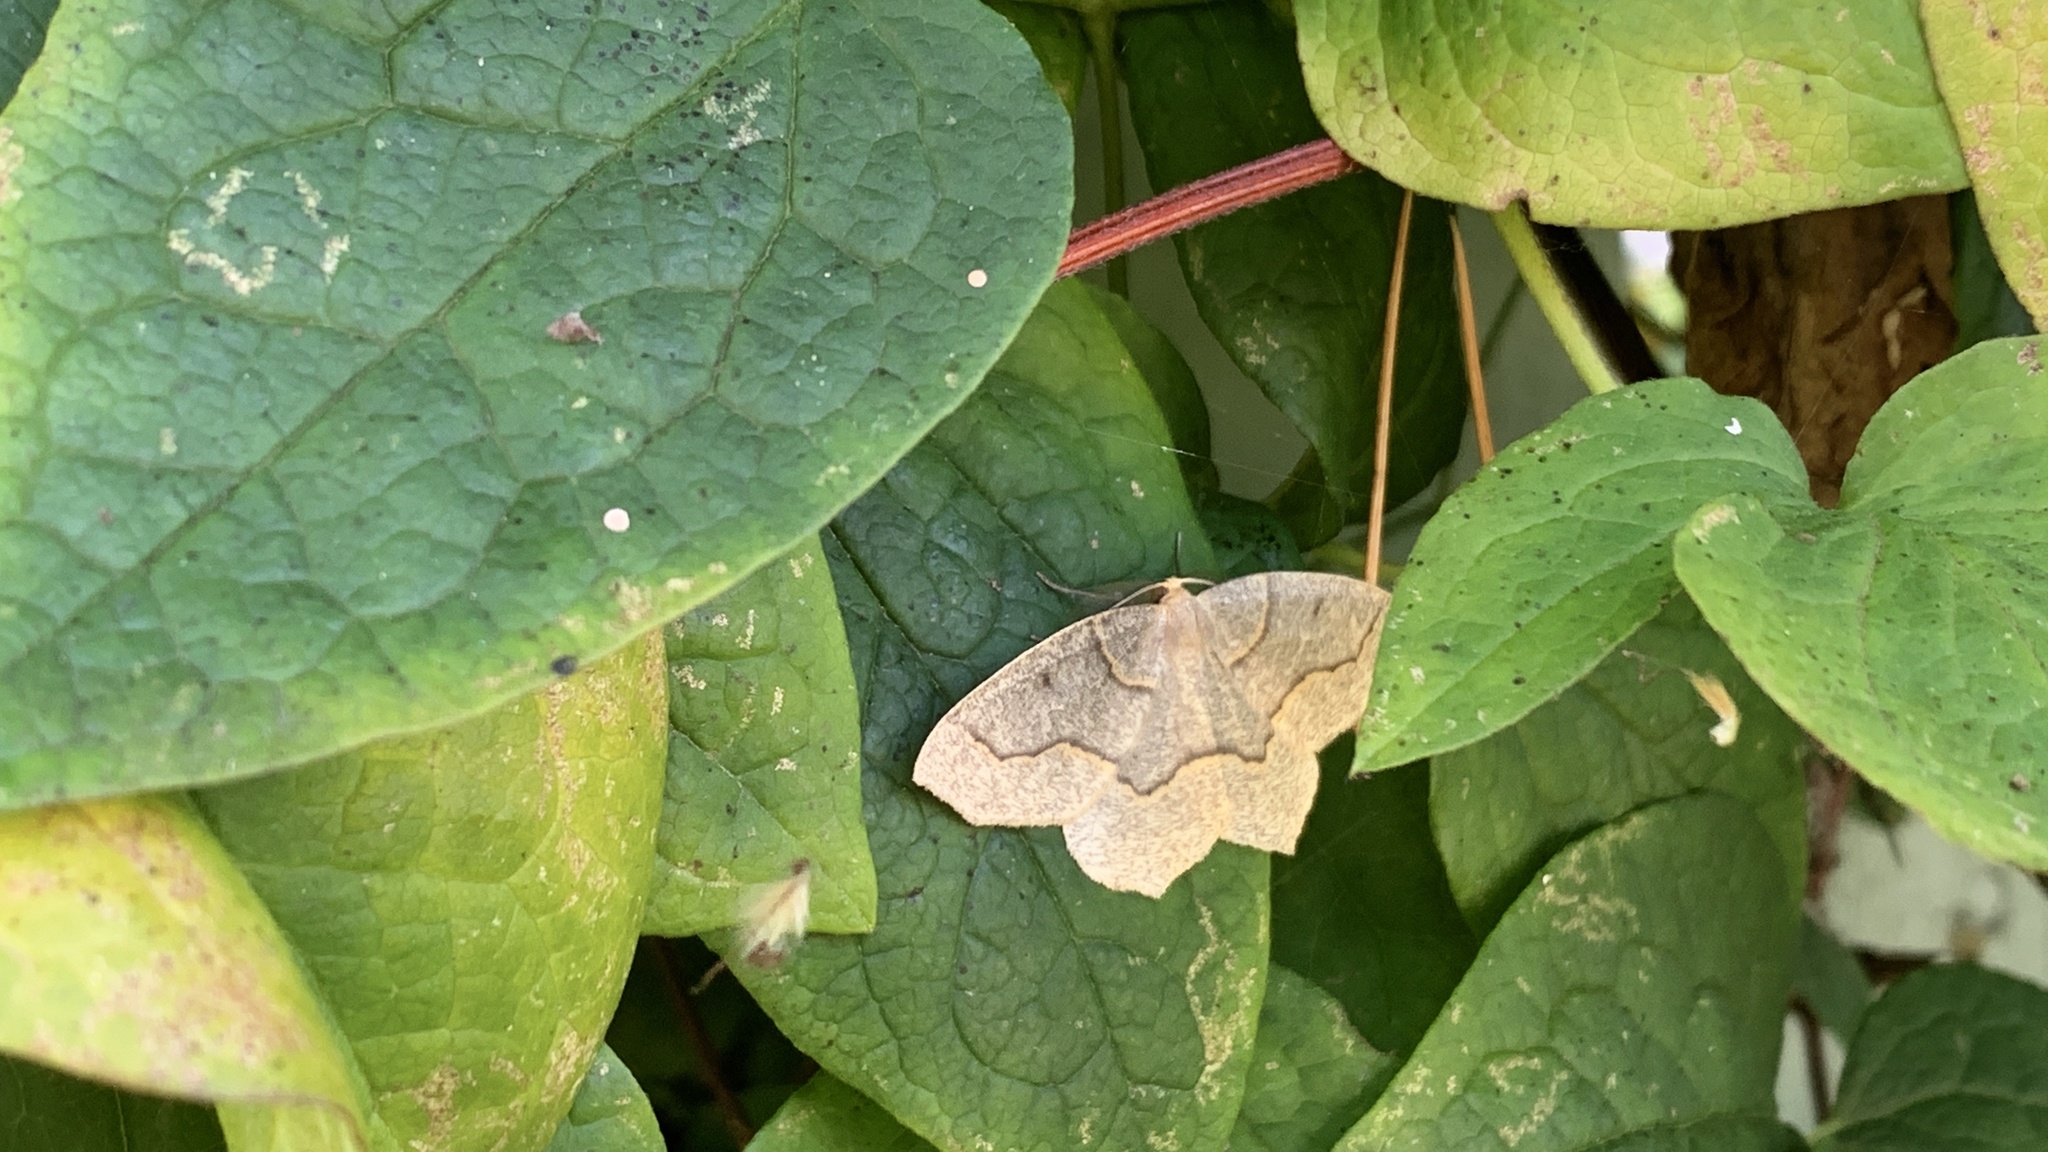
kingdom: Animalia
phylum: Arthropoda
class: Insecta
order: Lepidoptera
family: Geometridae
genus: Lambdina
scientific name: Lambdina fiscellaria
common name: Hemlock looper
